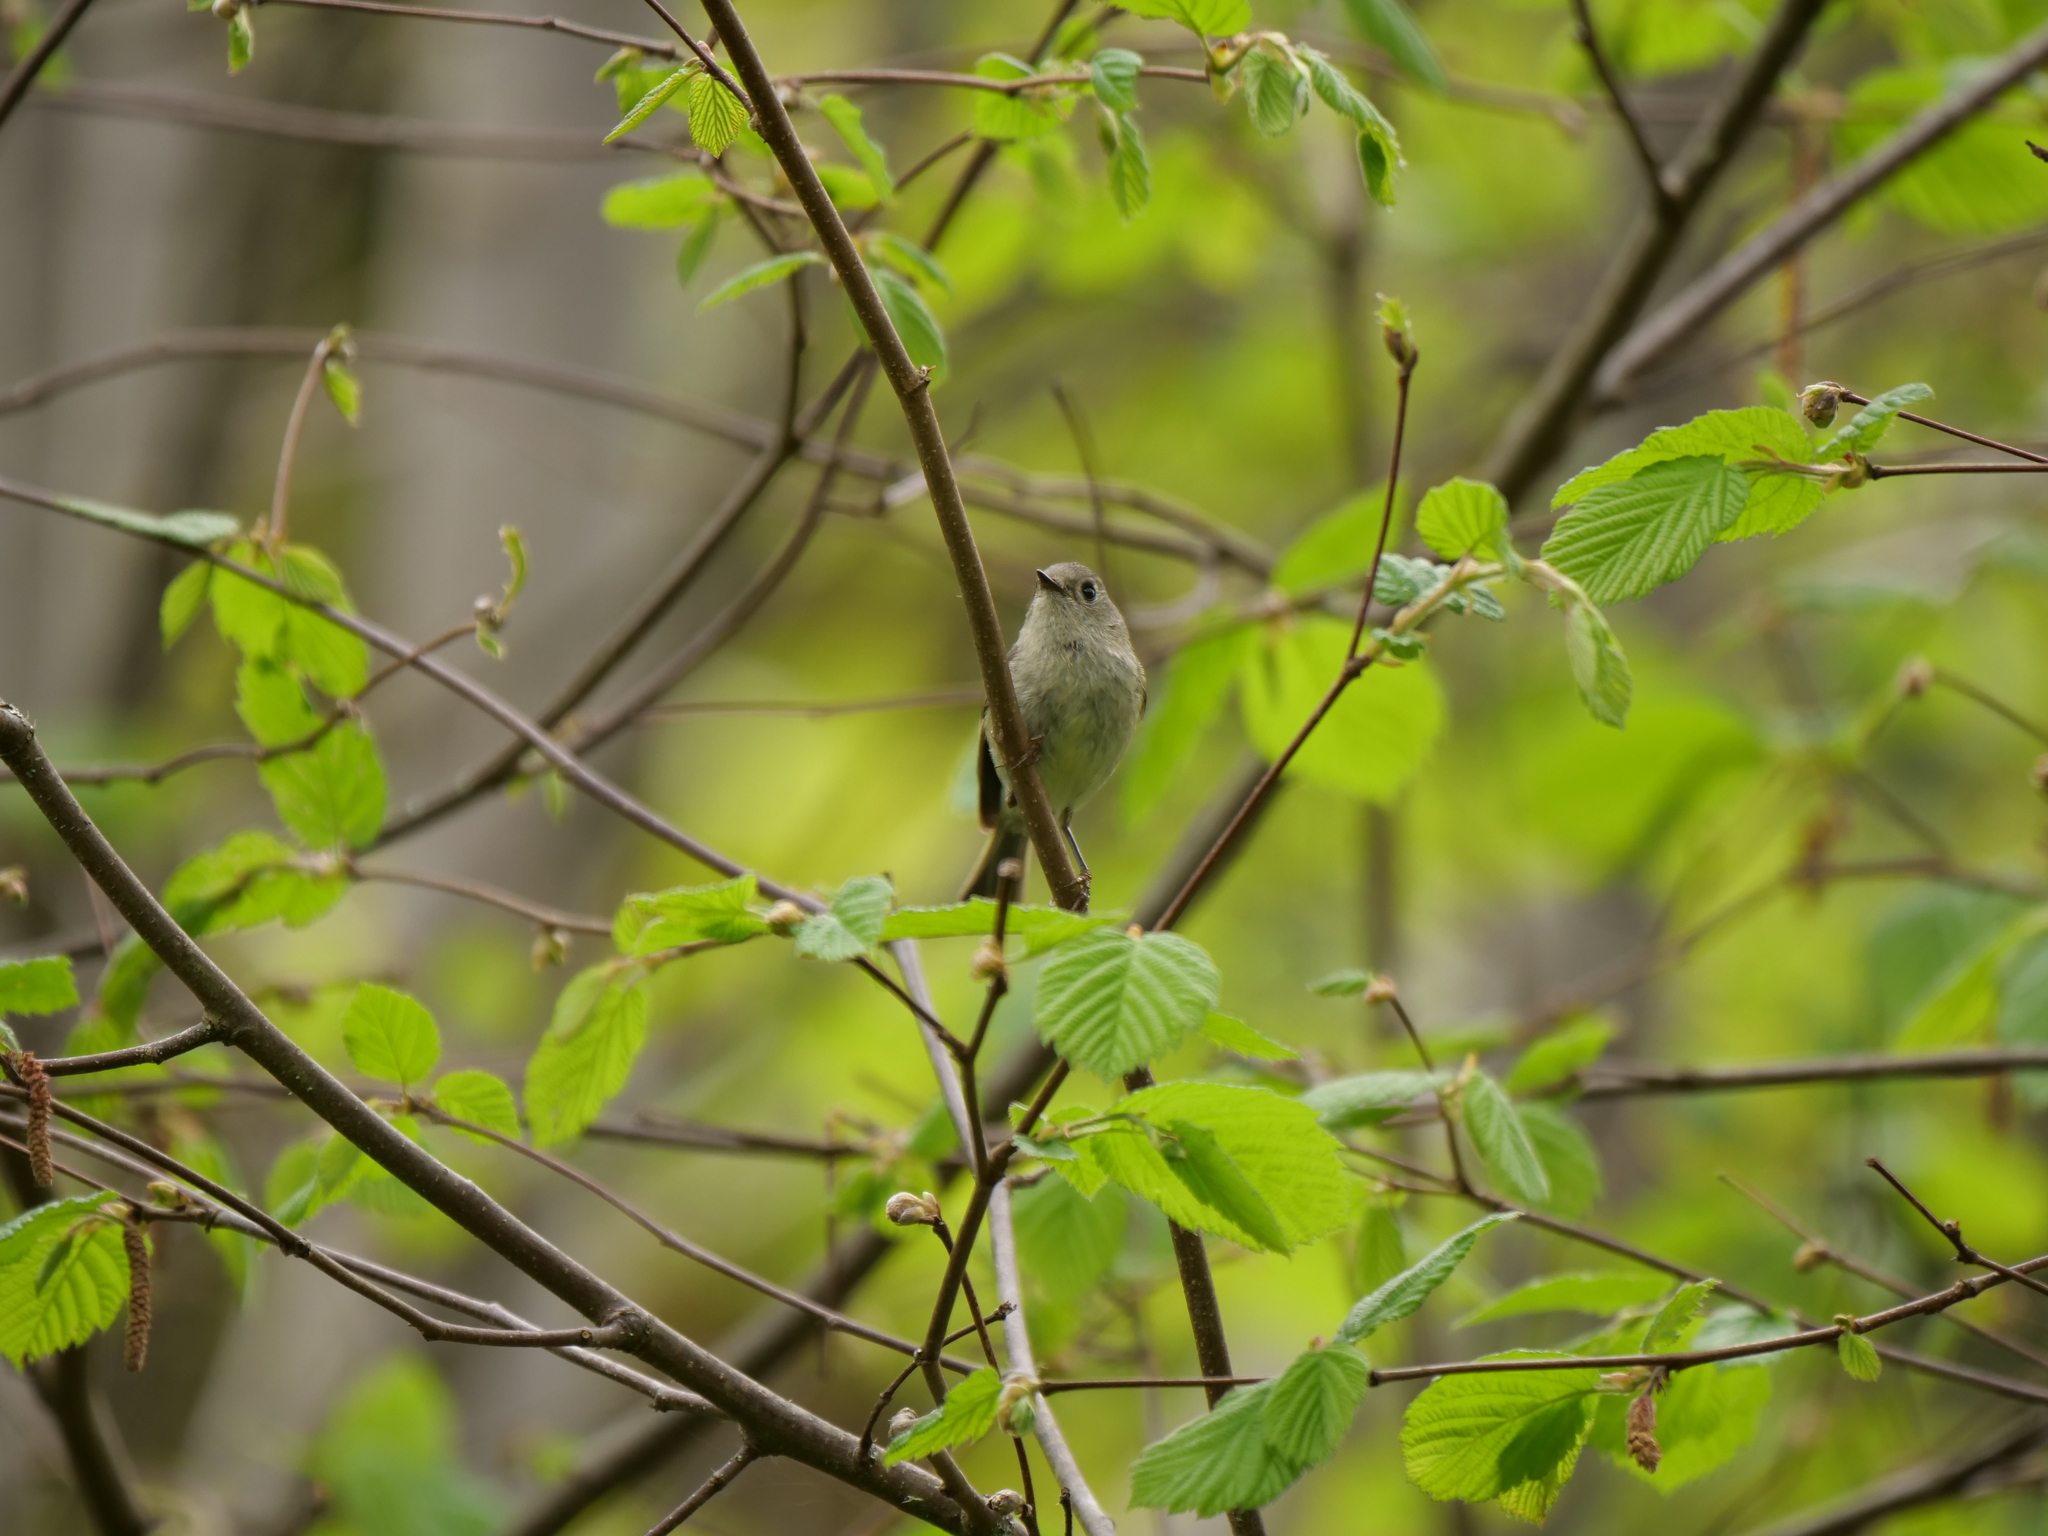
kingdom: Animalia
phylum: Chordata
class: Aves
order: Passeriformes
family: Regulidae
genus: Regulus
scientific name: Regulus calendula
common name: Ruby-crowned kinglet
